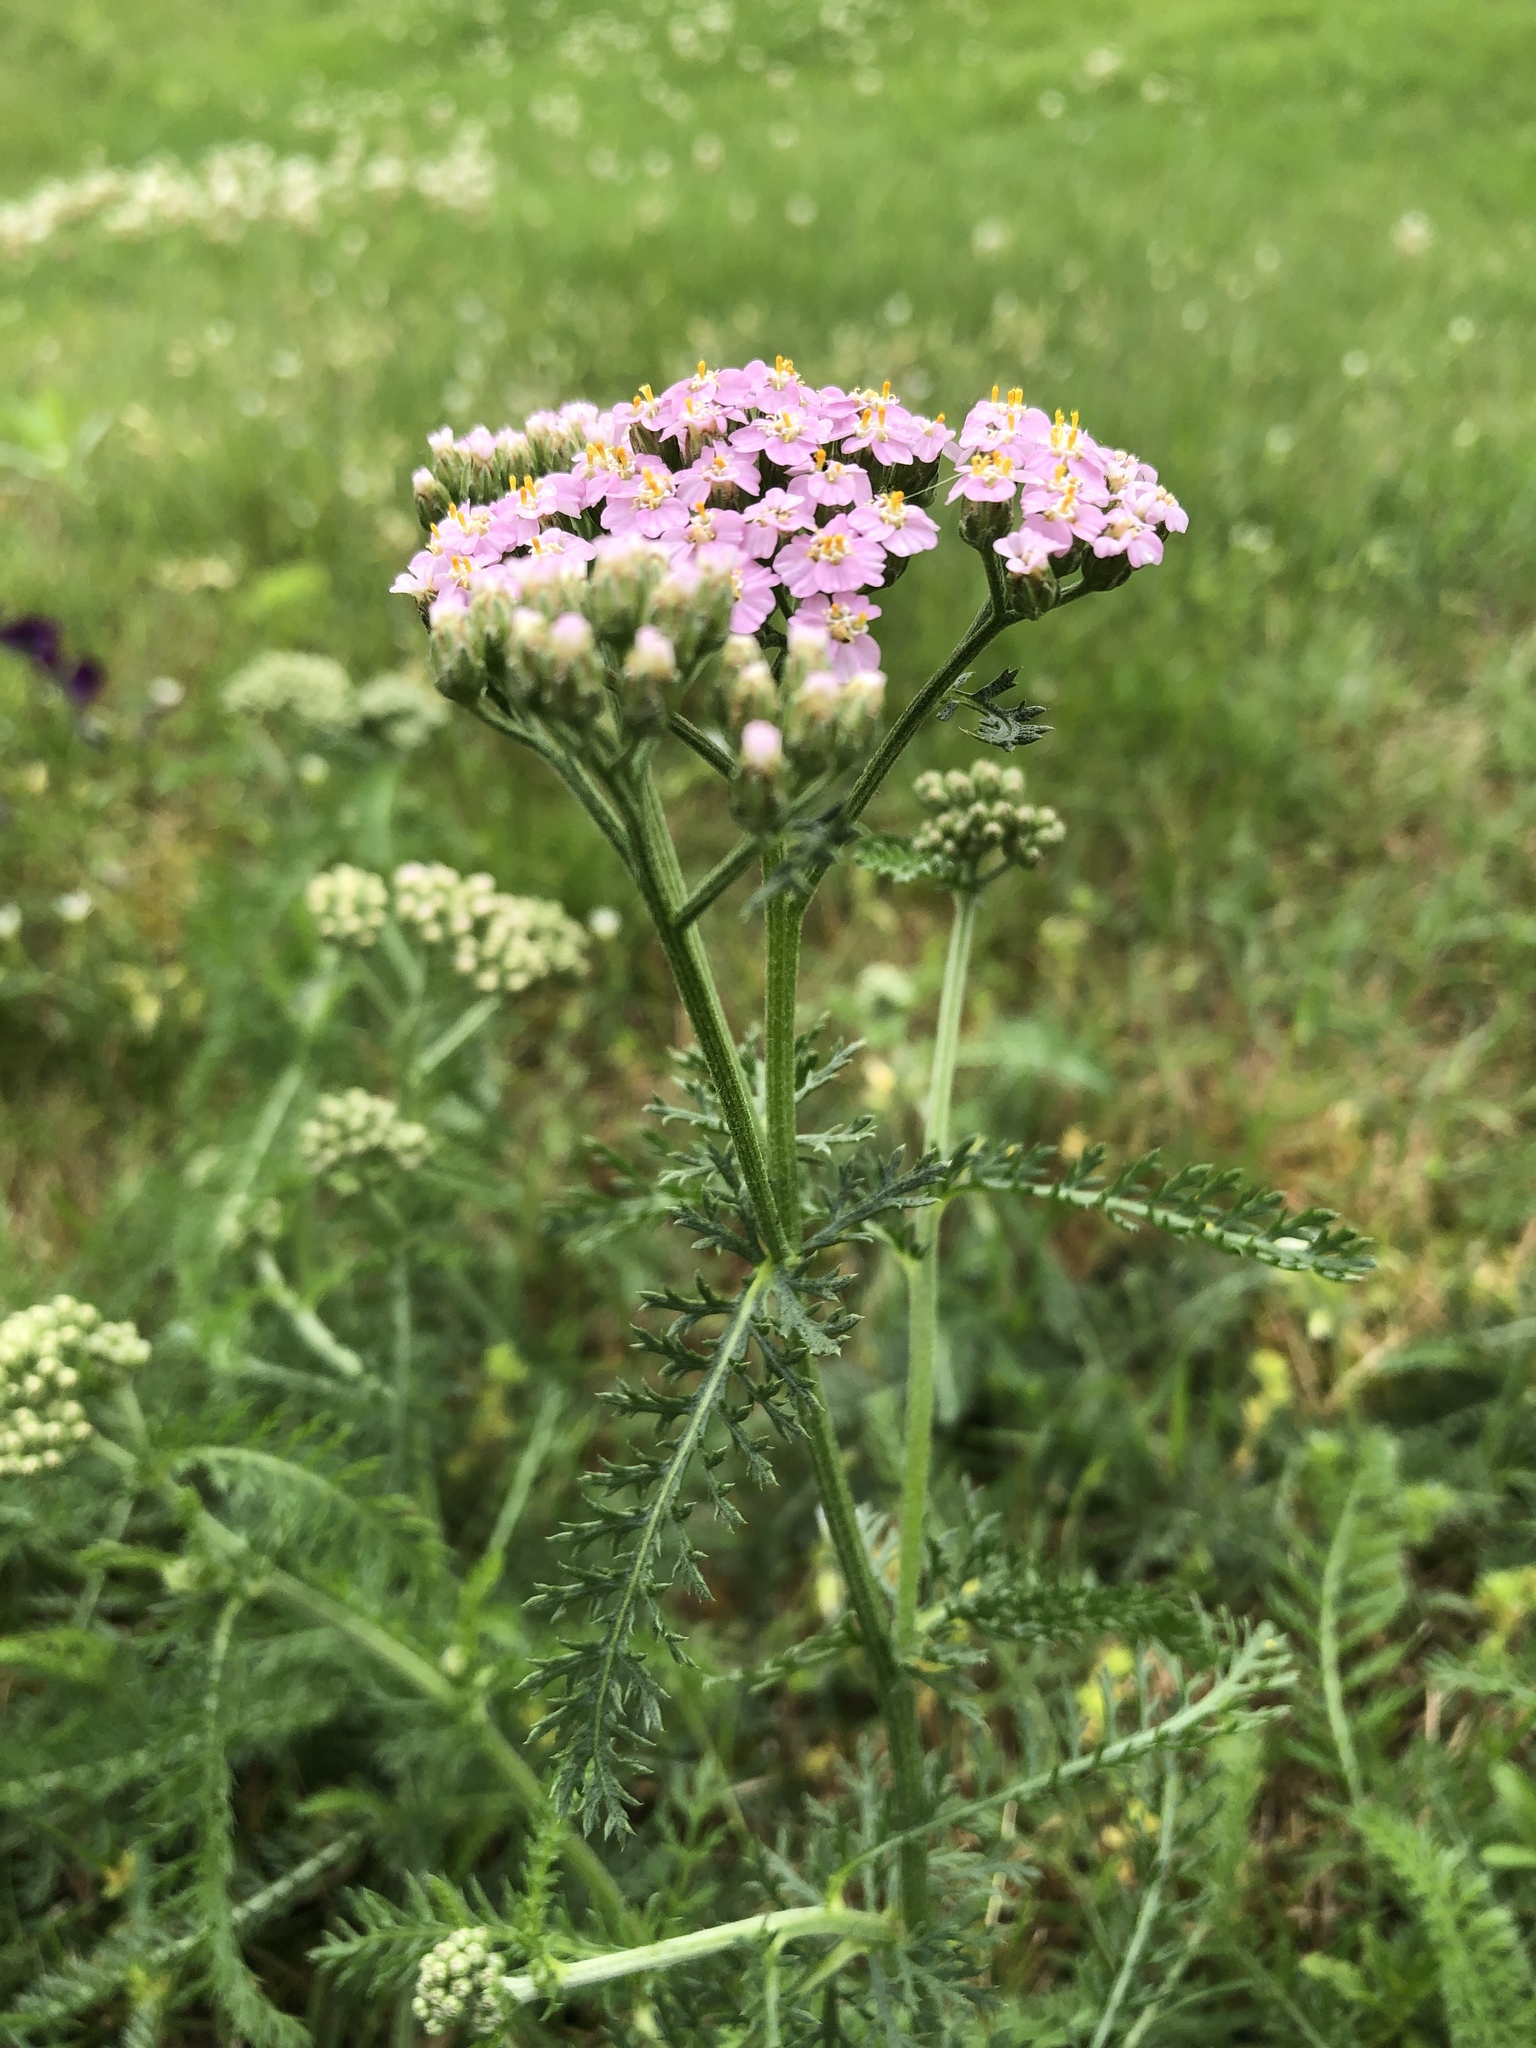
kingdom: Plantae
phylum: Tracheophyta
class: Magnoliopsida
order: Asterales
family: Asteraceae
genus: Achillea
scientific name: Achillea millefolium
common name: Yarrow
